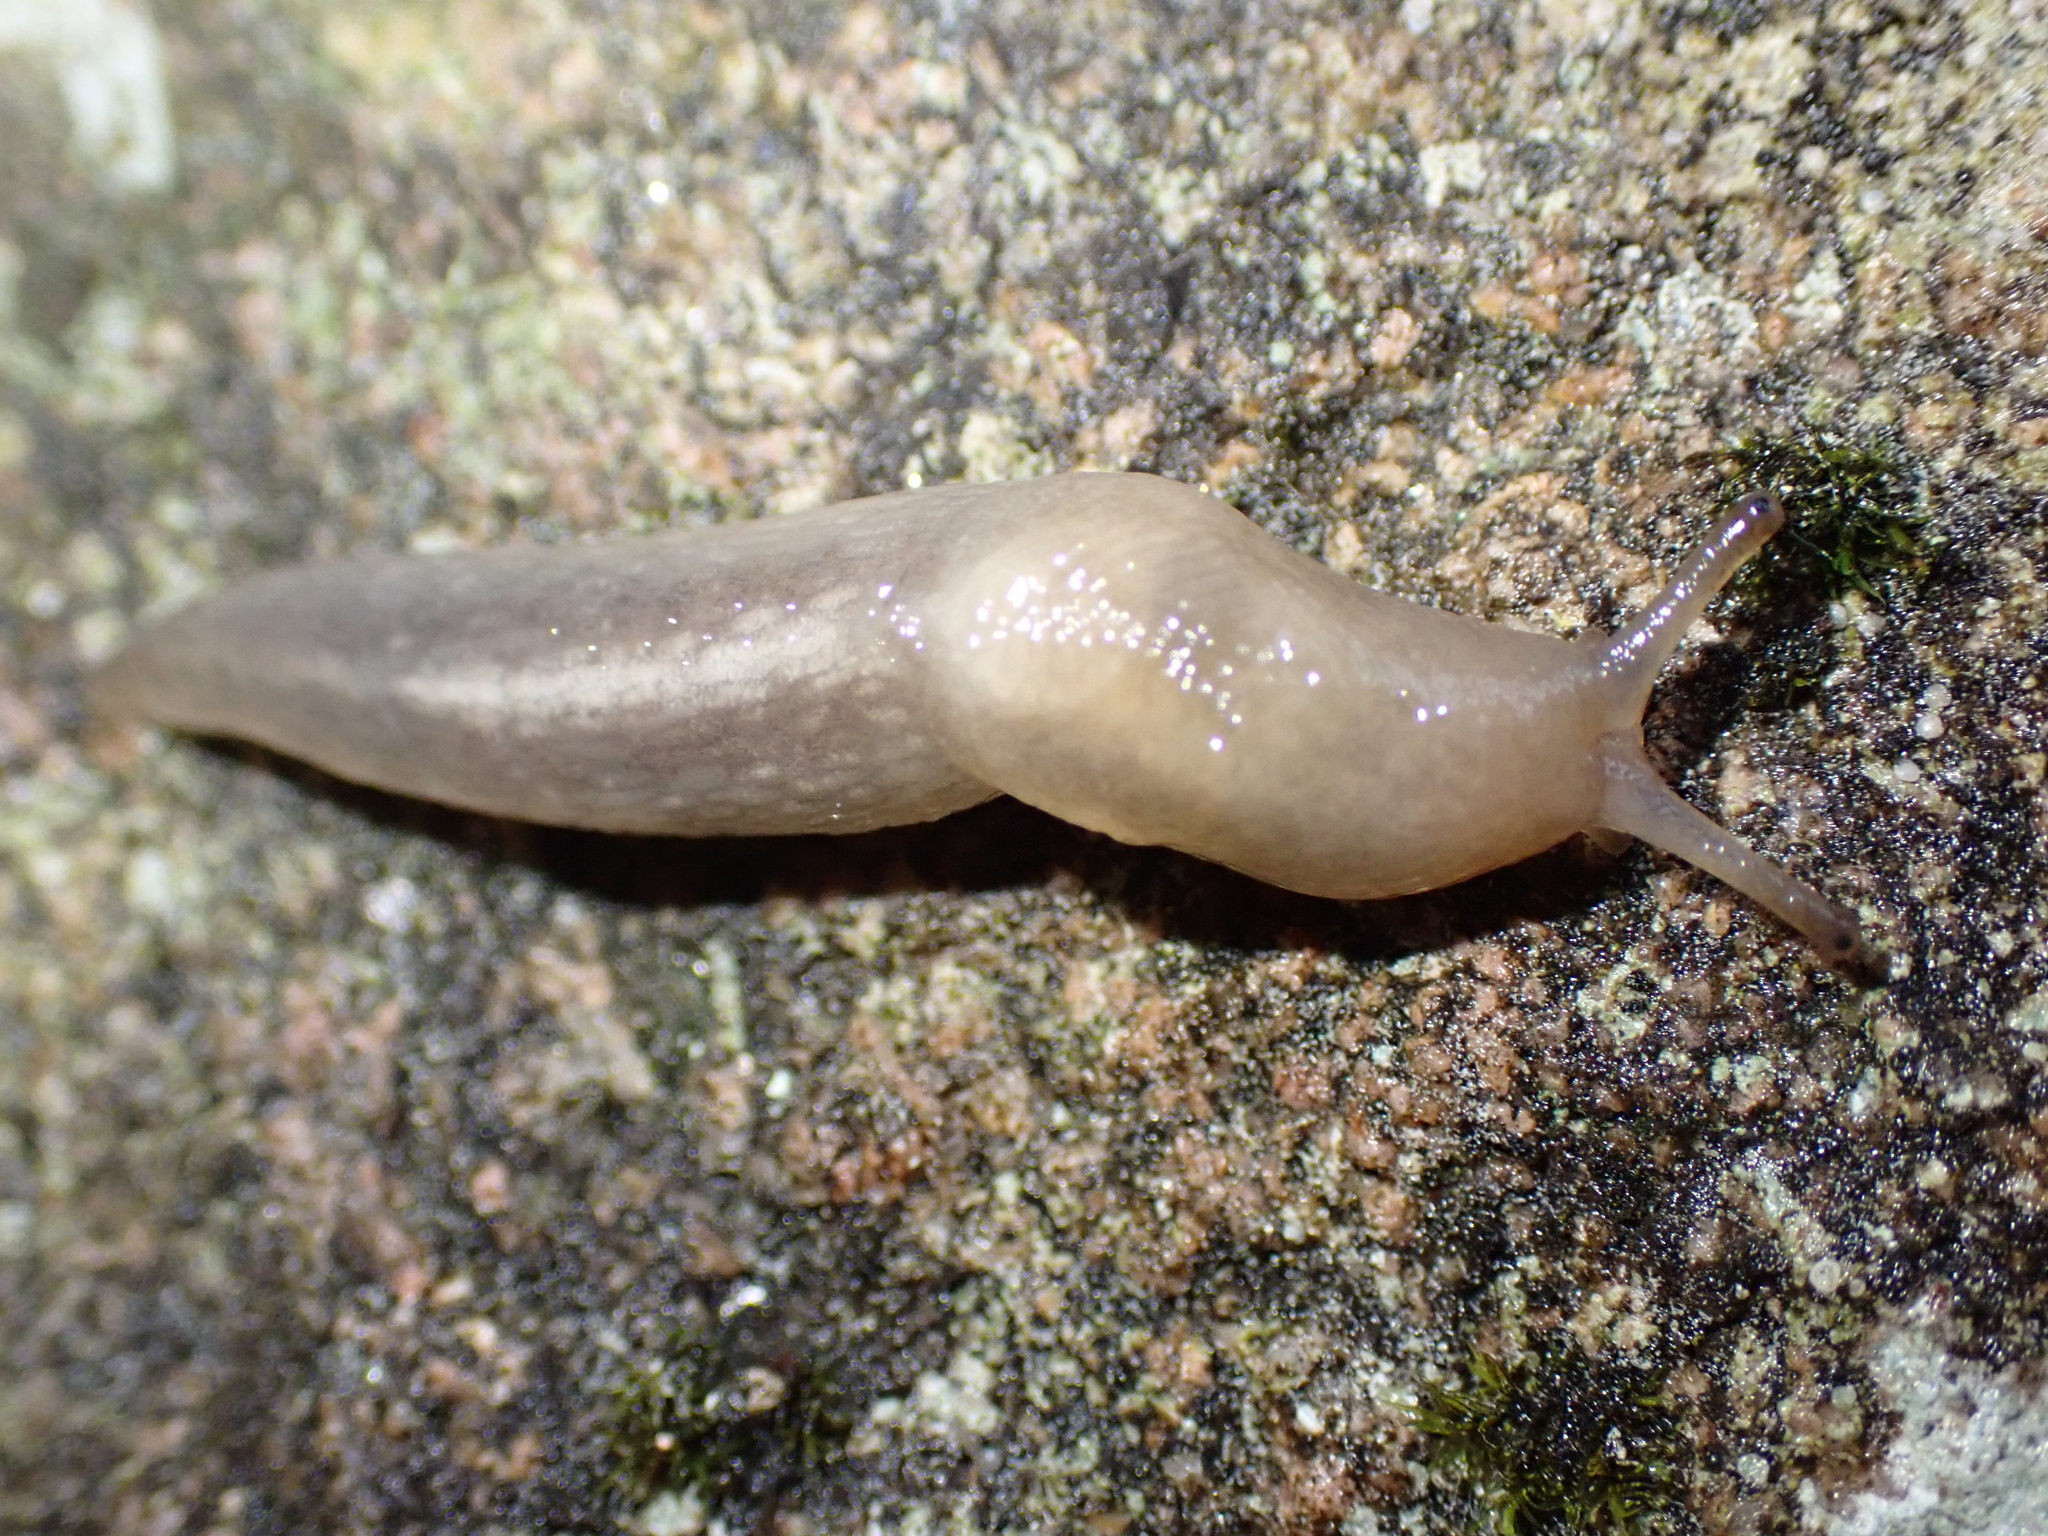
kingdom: Animalia
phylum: Mollusca
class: Gastropoda
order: Stylommatophora
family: Limacidae
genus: Lehmannia
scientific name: Lehmannia marginata
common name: Tree slug
